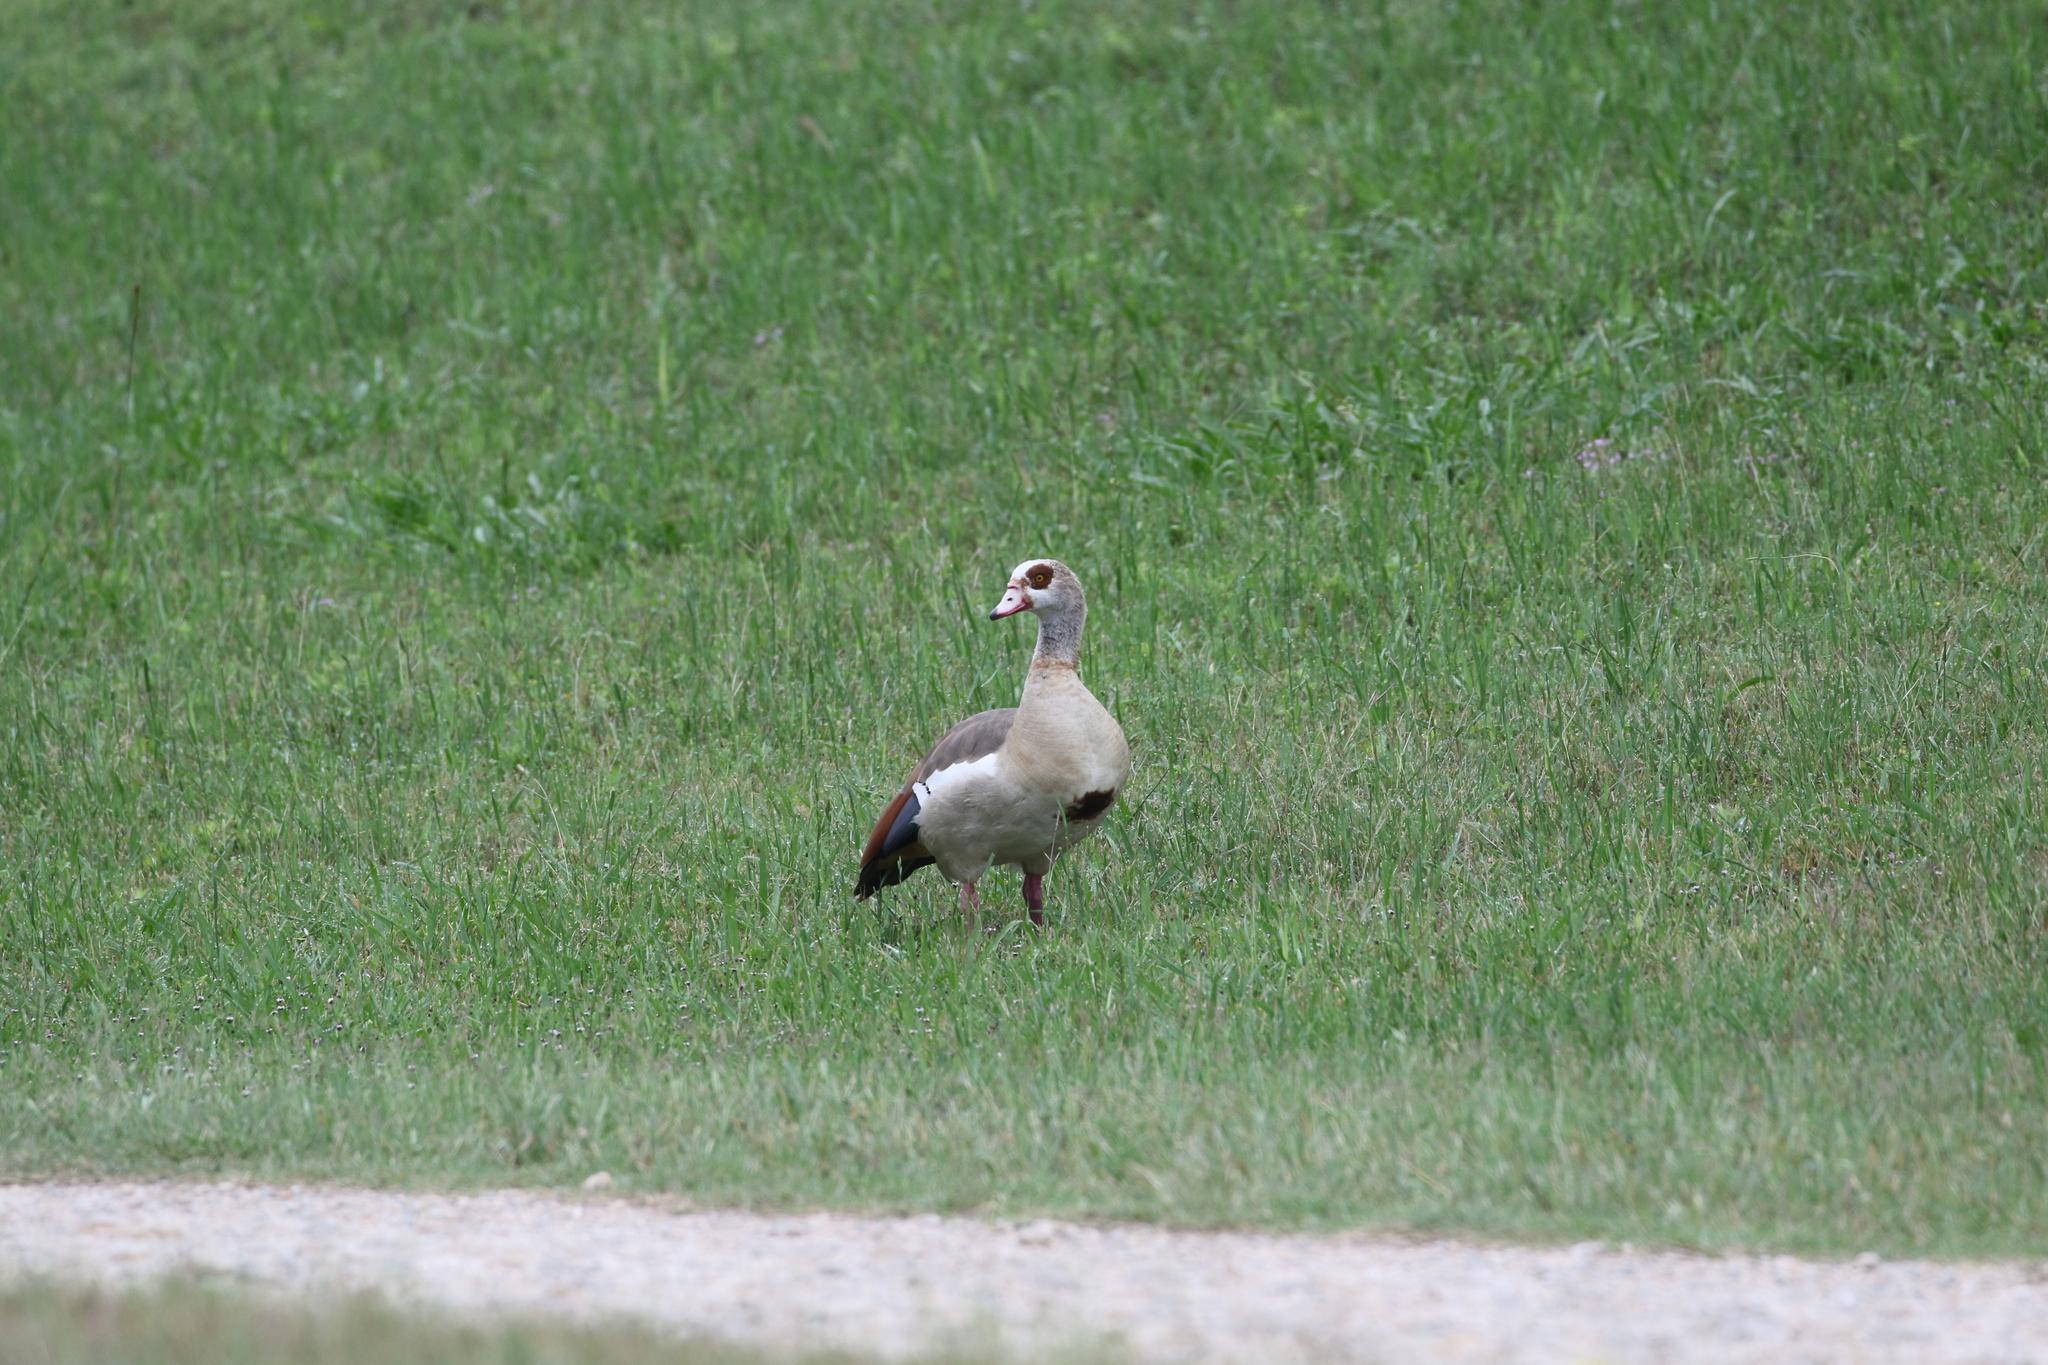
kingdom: Animalia
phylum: Chordata
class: Aves
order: Anseriformes
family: Anatidae
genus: Alopochen
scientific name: Alopochen aegyptiaca
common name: Egyptian goose
